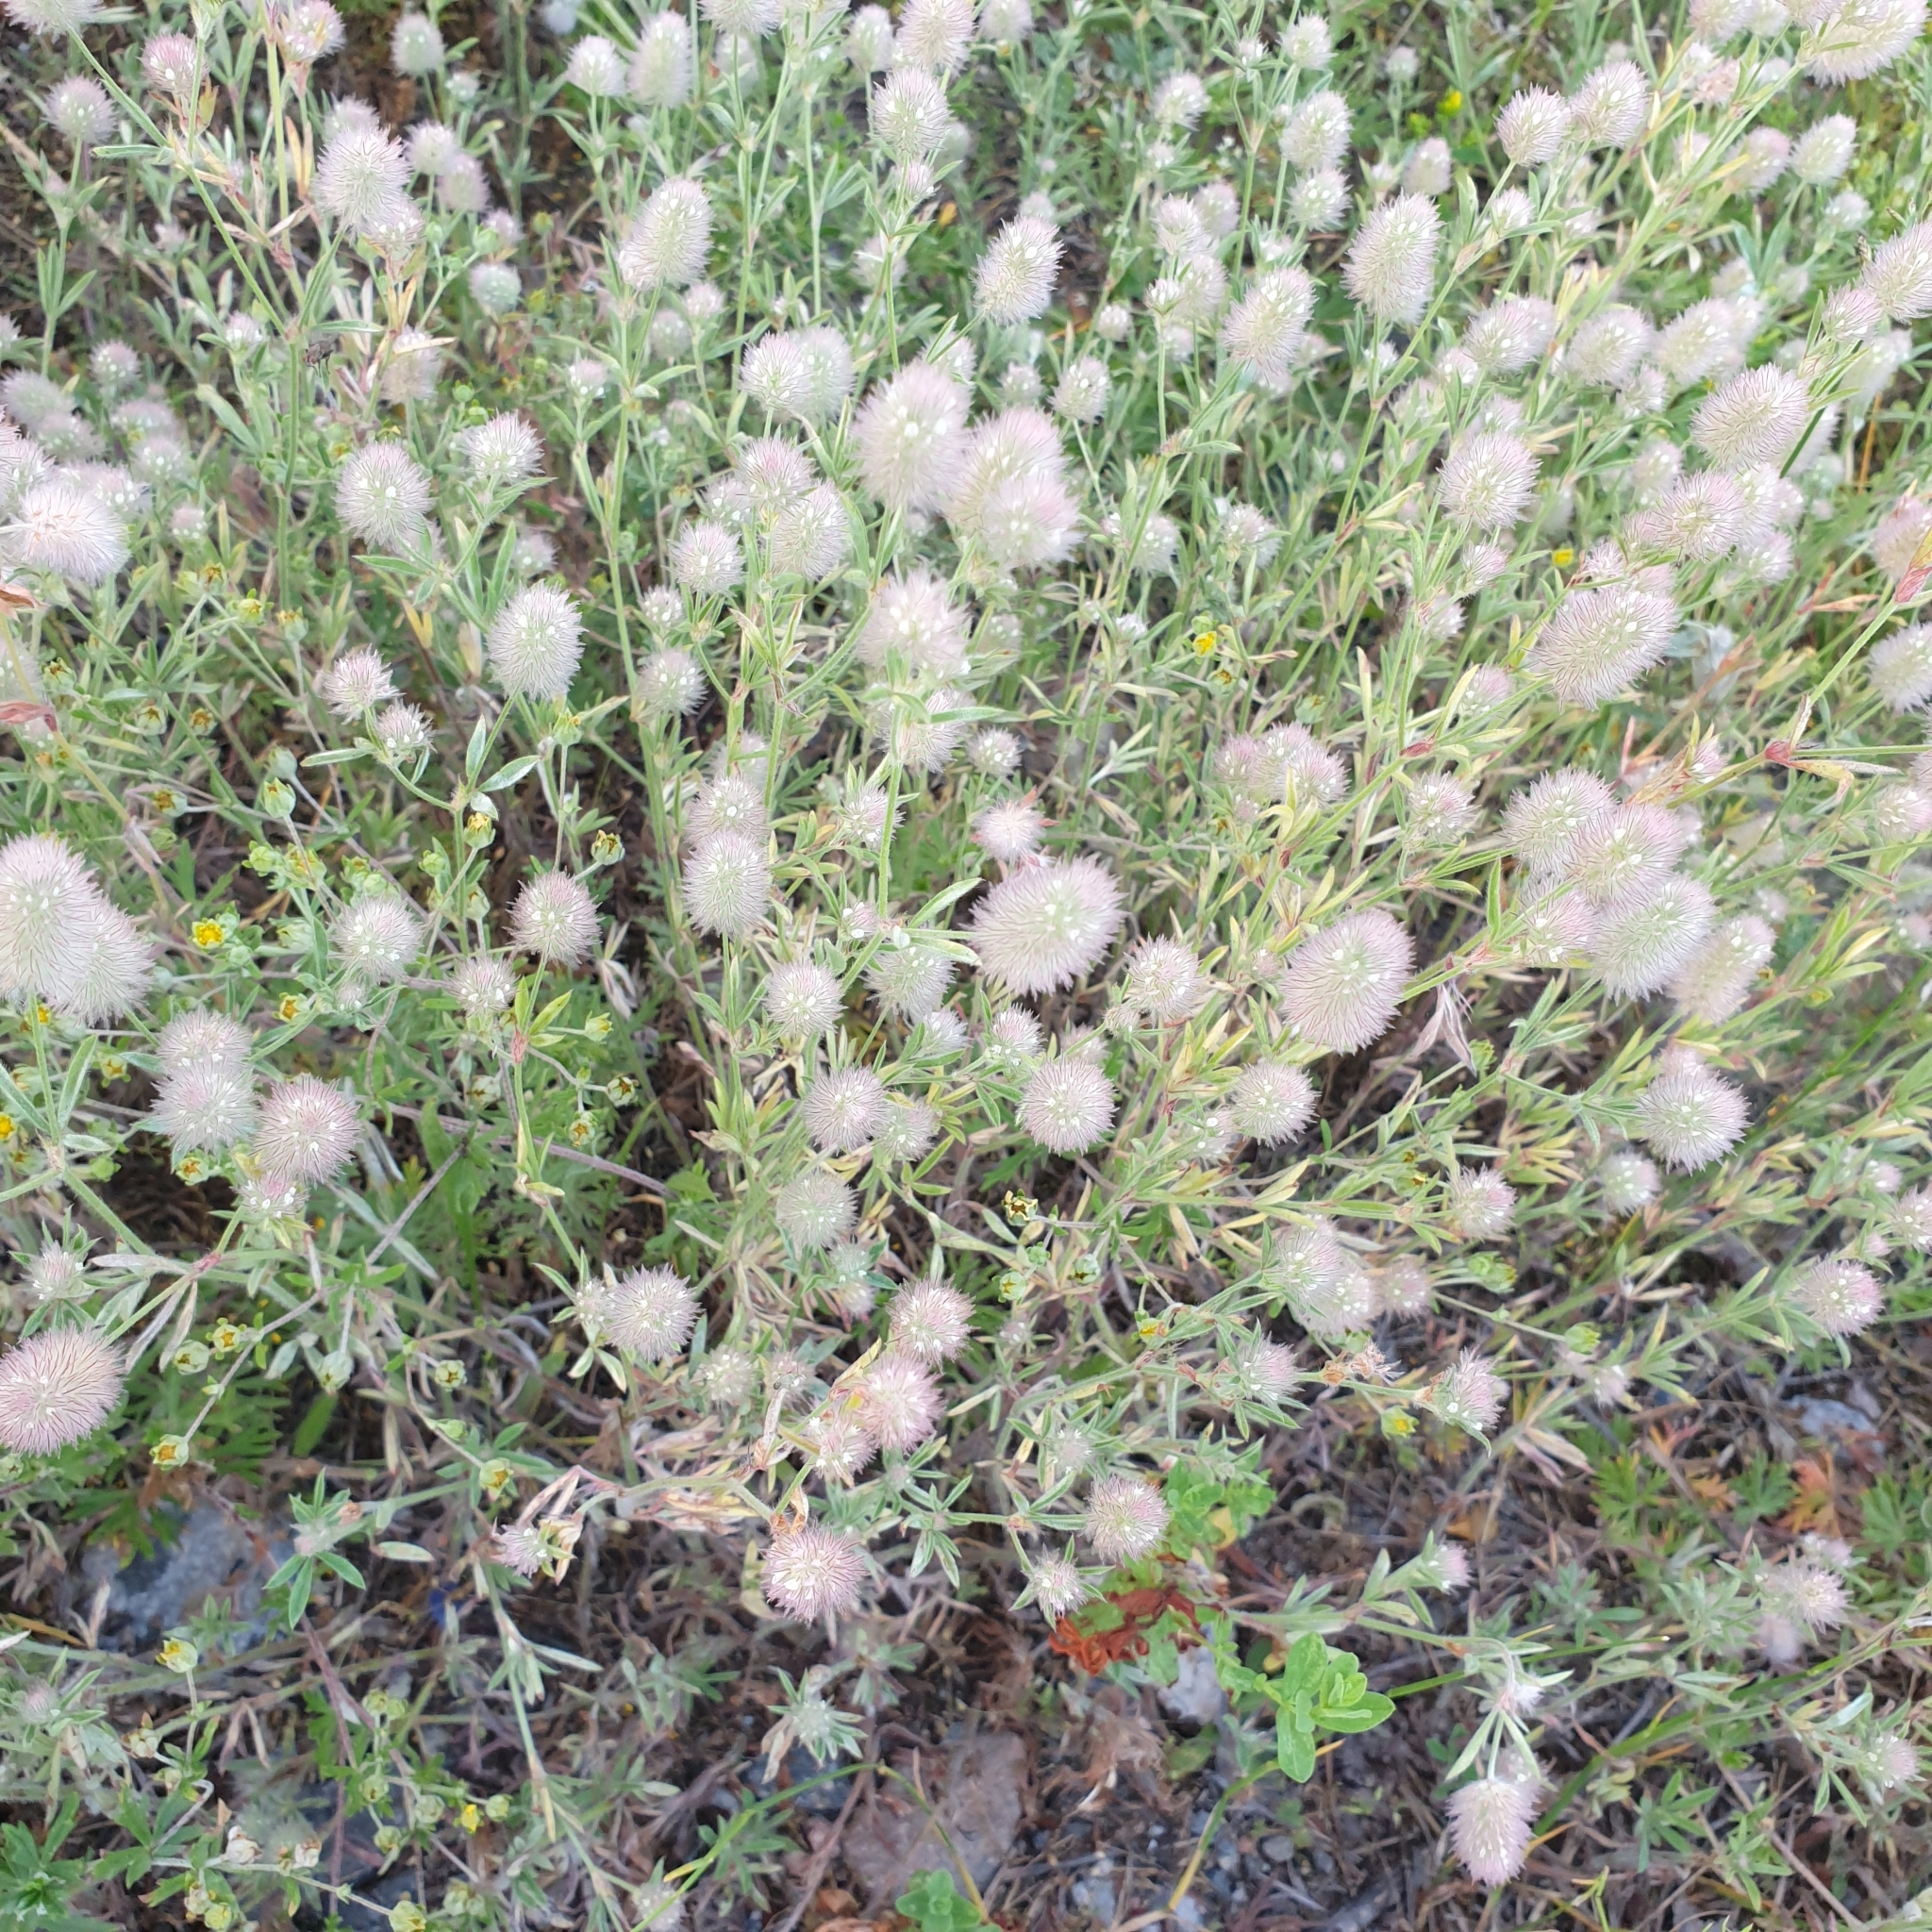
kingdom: Plantae
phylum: Tracheophyta
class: Magnoliopsida
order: Fabales
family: Fabaceae
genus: Trifolium
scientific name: Trifolium arvense
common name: Hare's-foot clover
